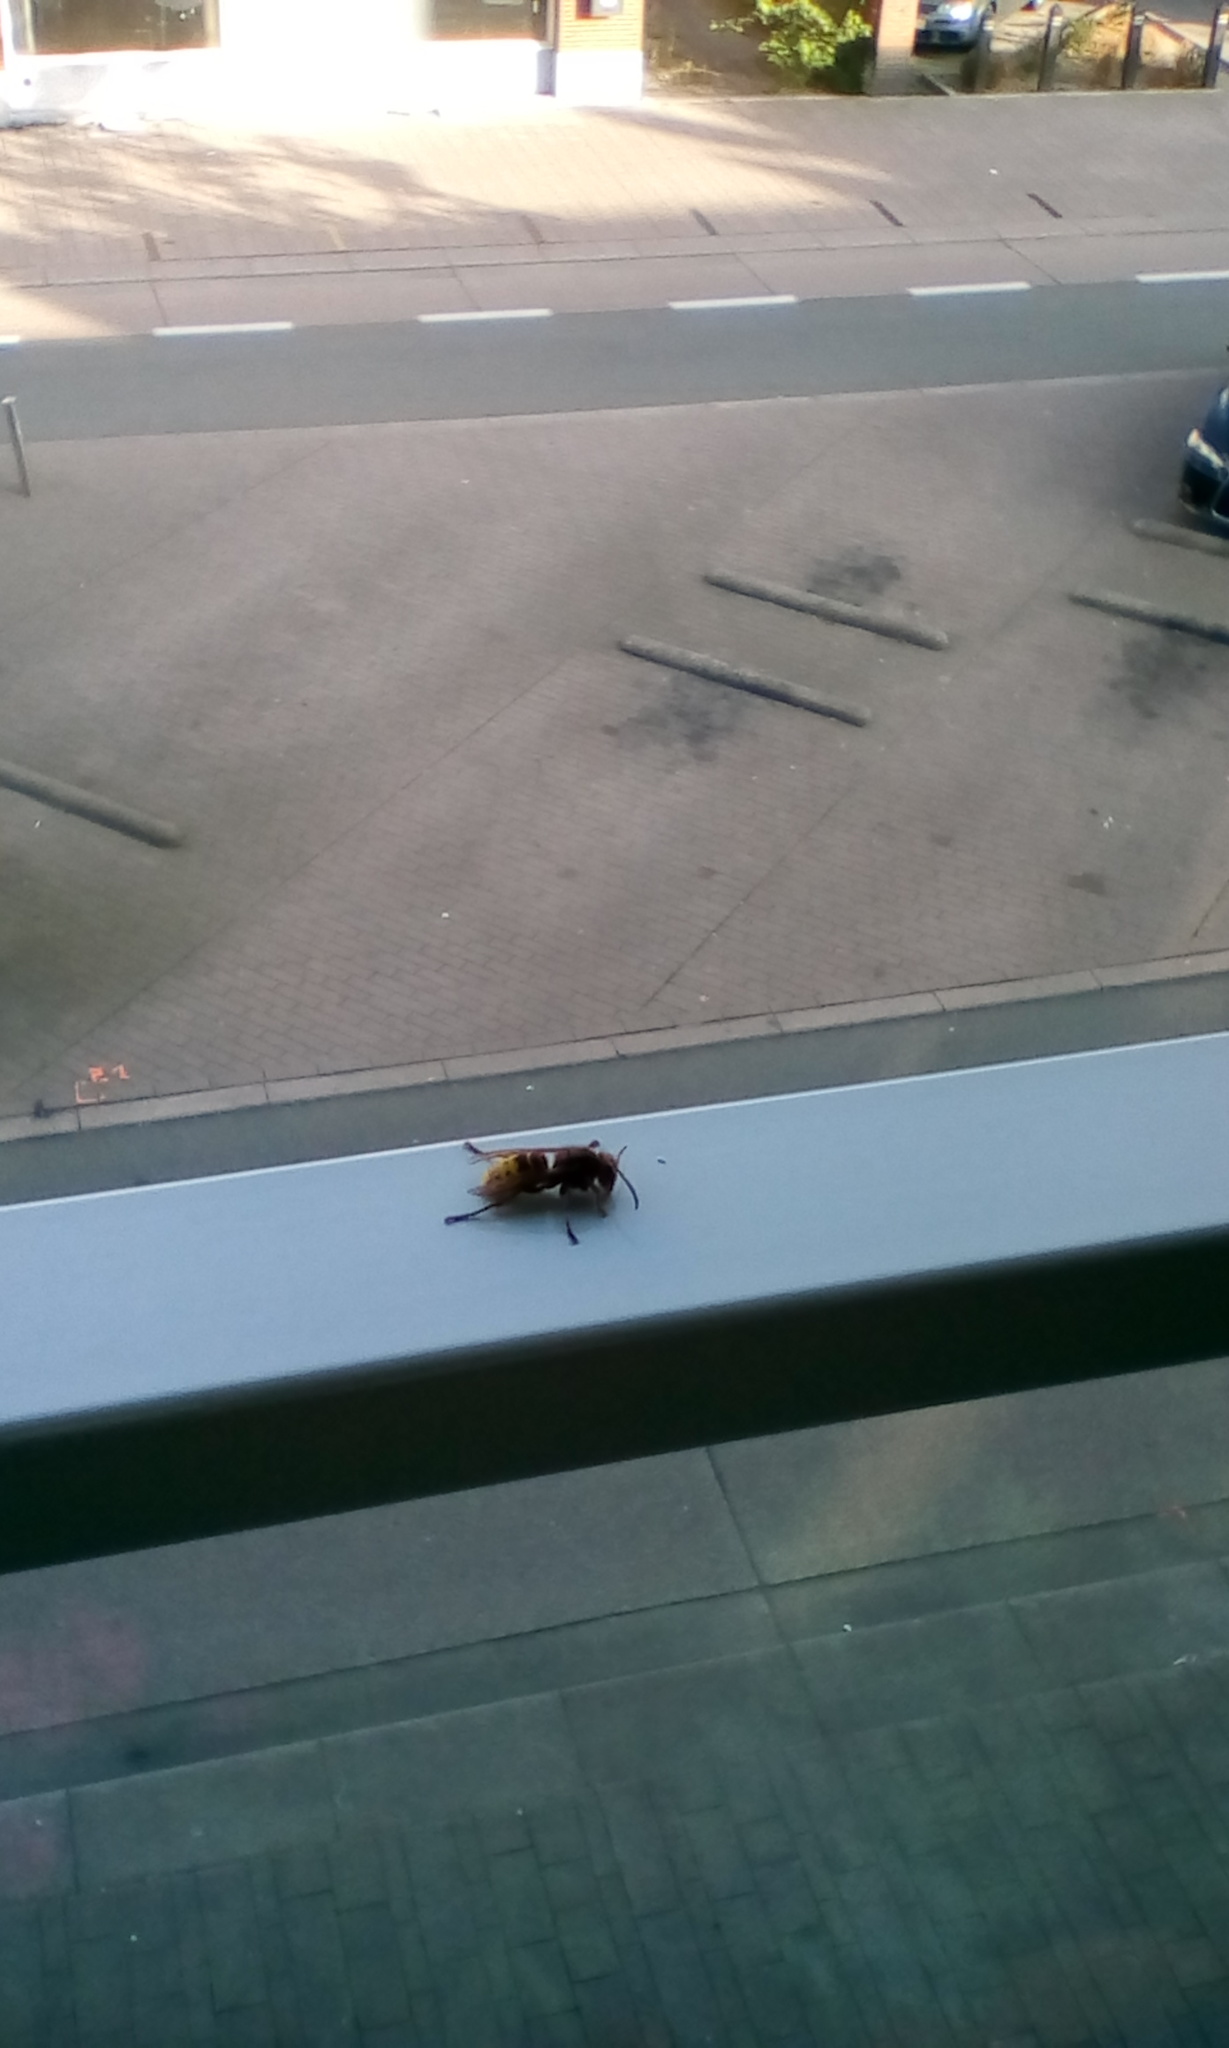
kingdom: Animalia
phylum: Arthropoda
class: Insecta
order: Hymenoptera
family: Vespidae
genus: Vespa
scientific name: Vespa crabro
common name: Hornet
